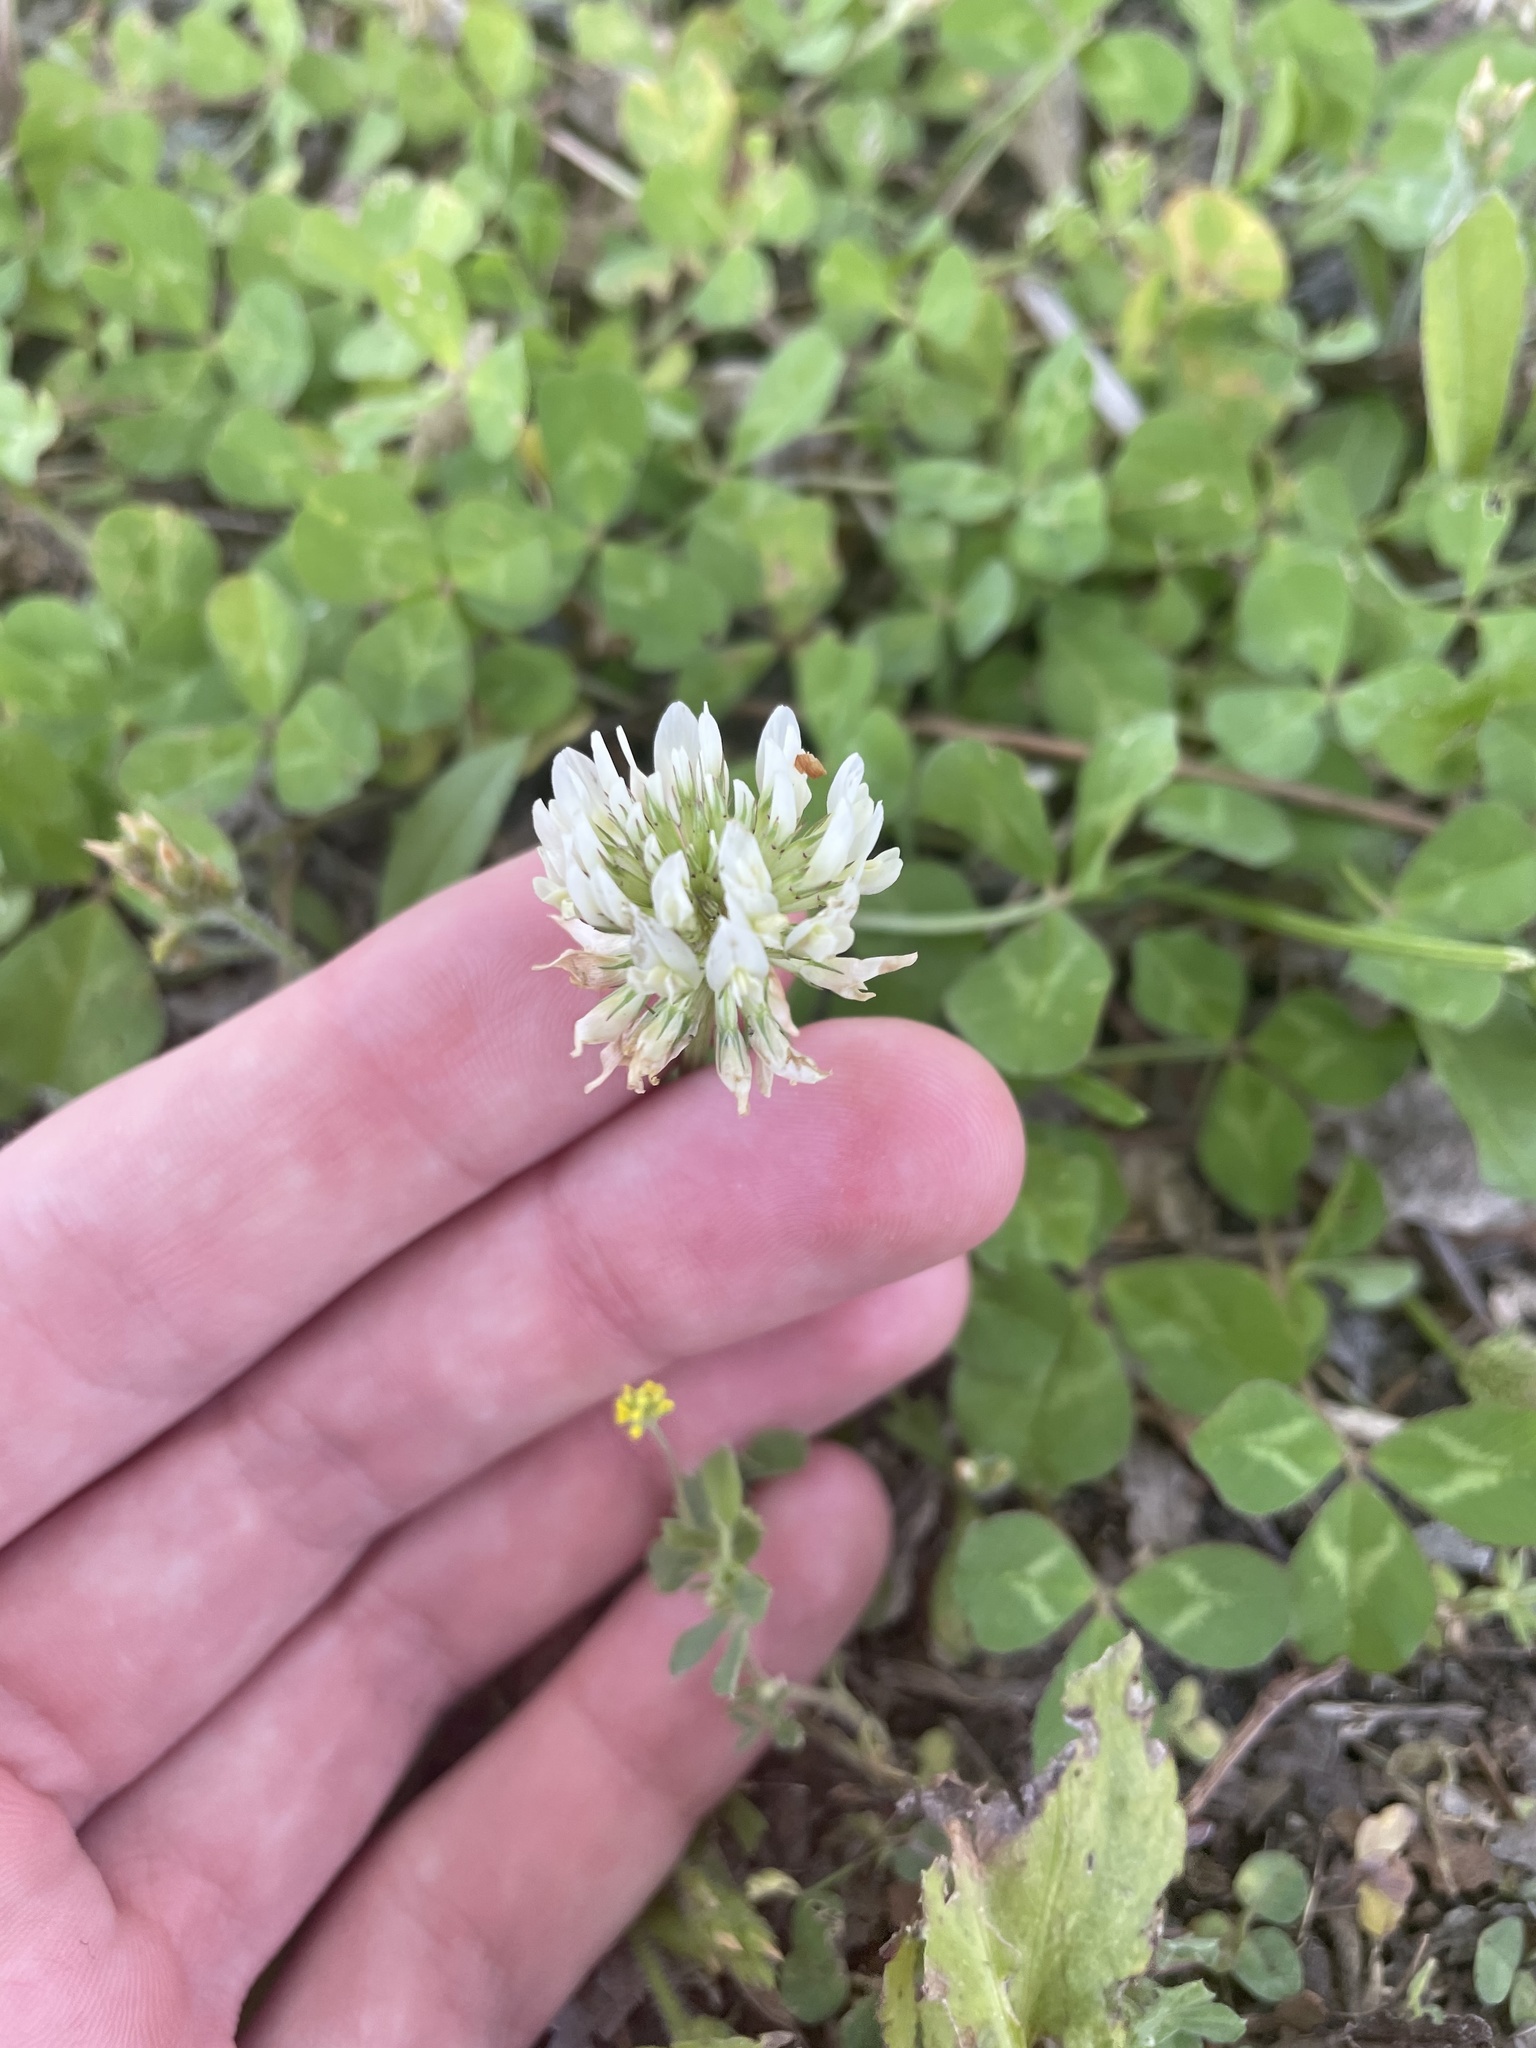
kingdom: Plantae
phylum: Tracheophyta
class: Magnoliopsida
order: Fabales
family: Fabaceae
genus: Trifolium
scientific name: Trifolium repens
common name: White clover
